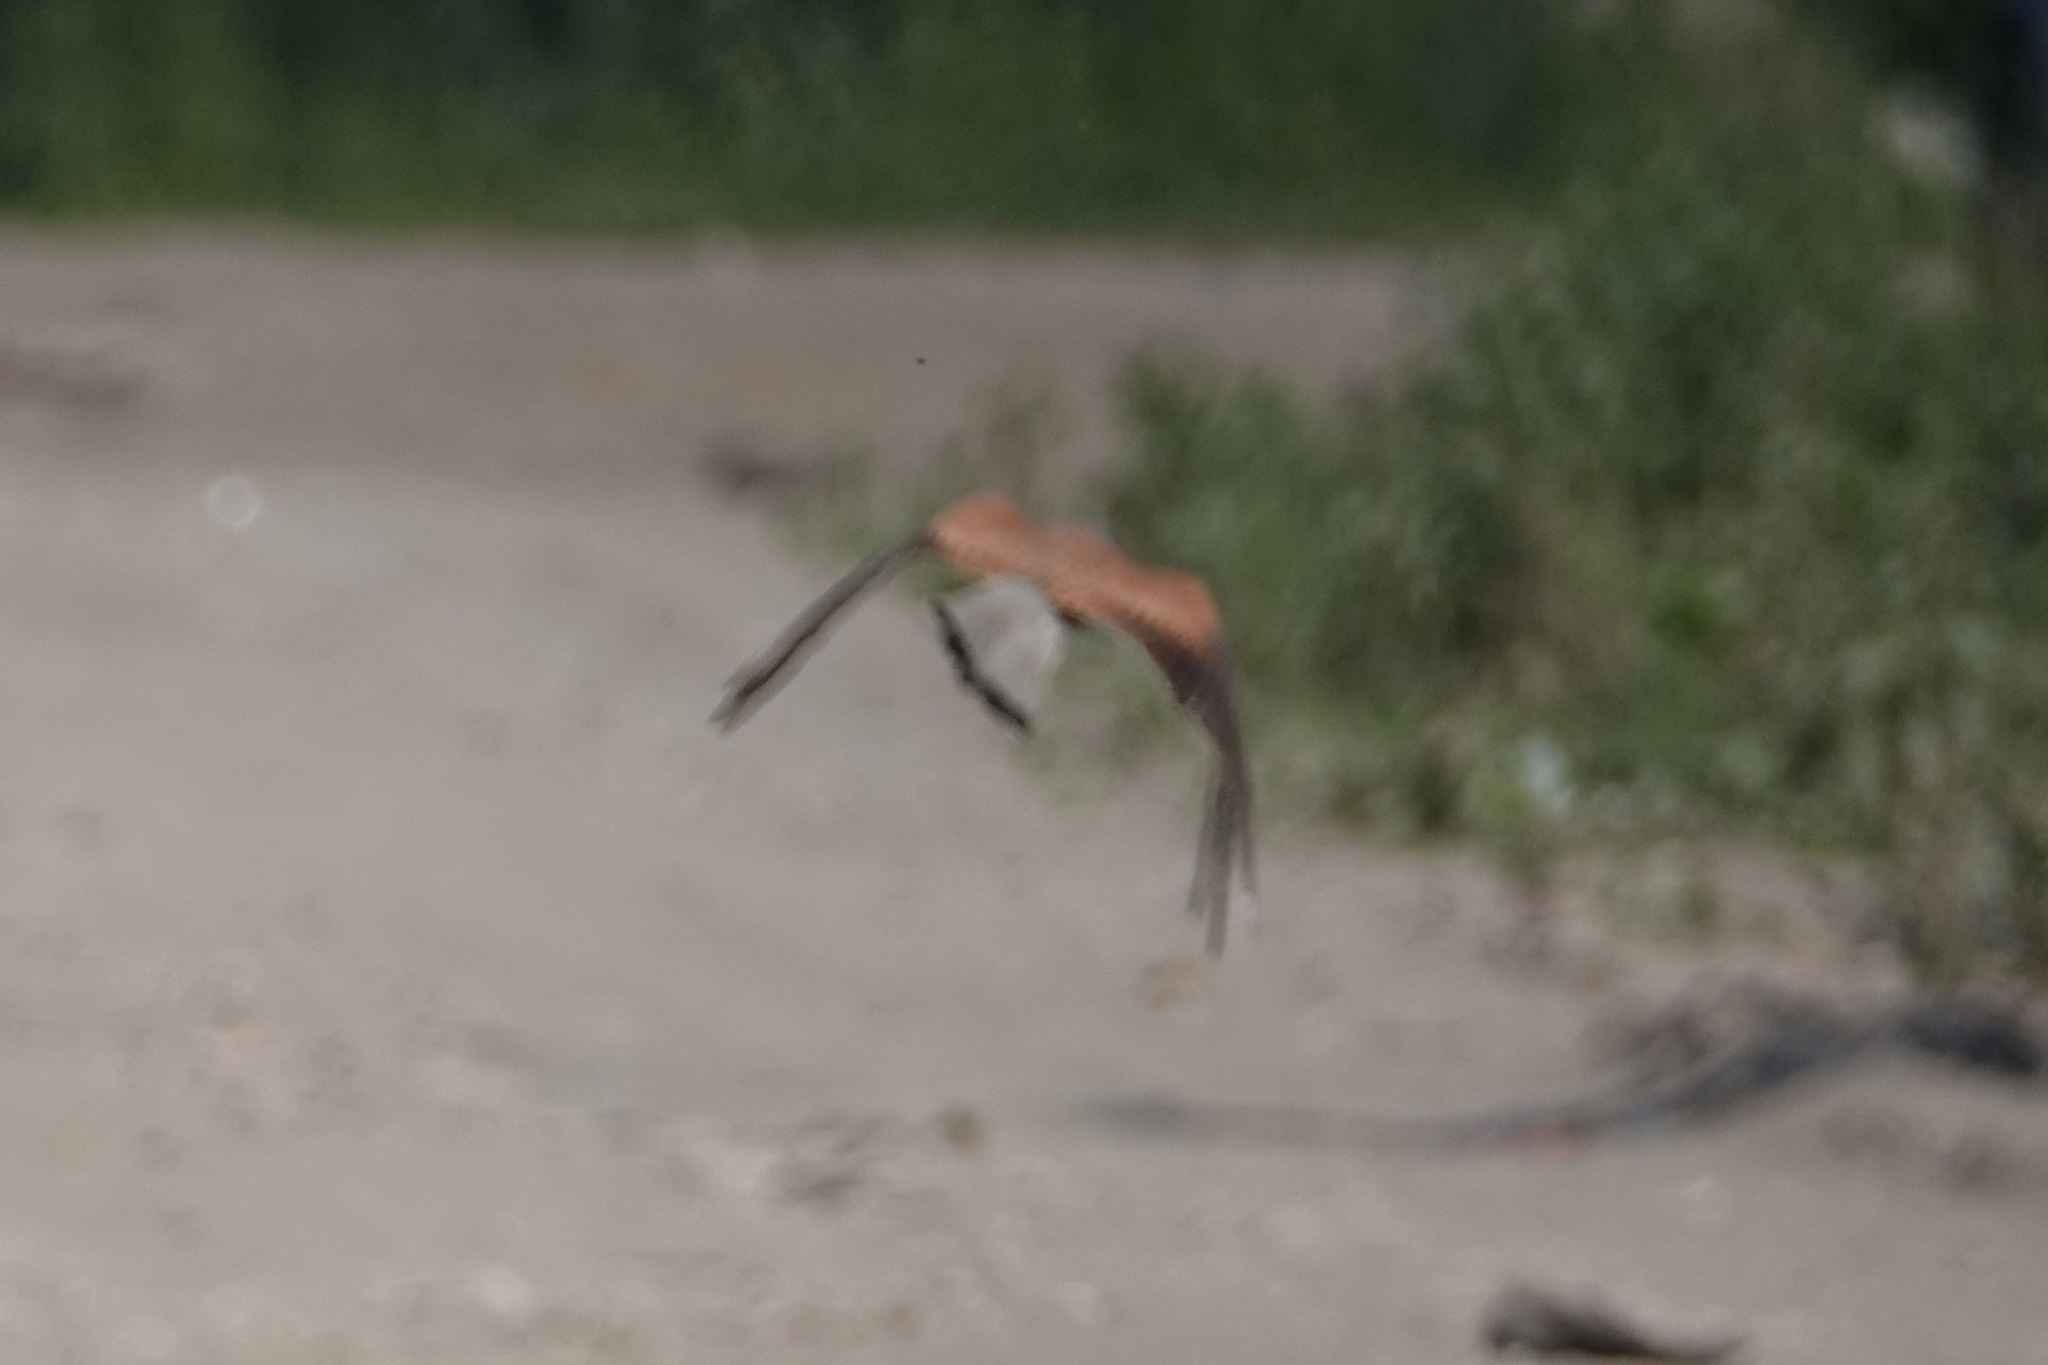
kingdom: Animalia
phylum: Chordata
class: Aves
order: Falconiformes
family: Falconidae
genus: Falco
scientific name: Falco tinnunculus
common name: Common kestrel
